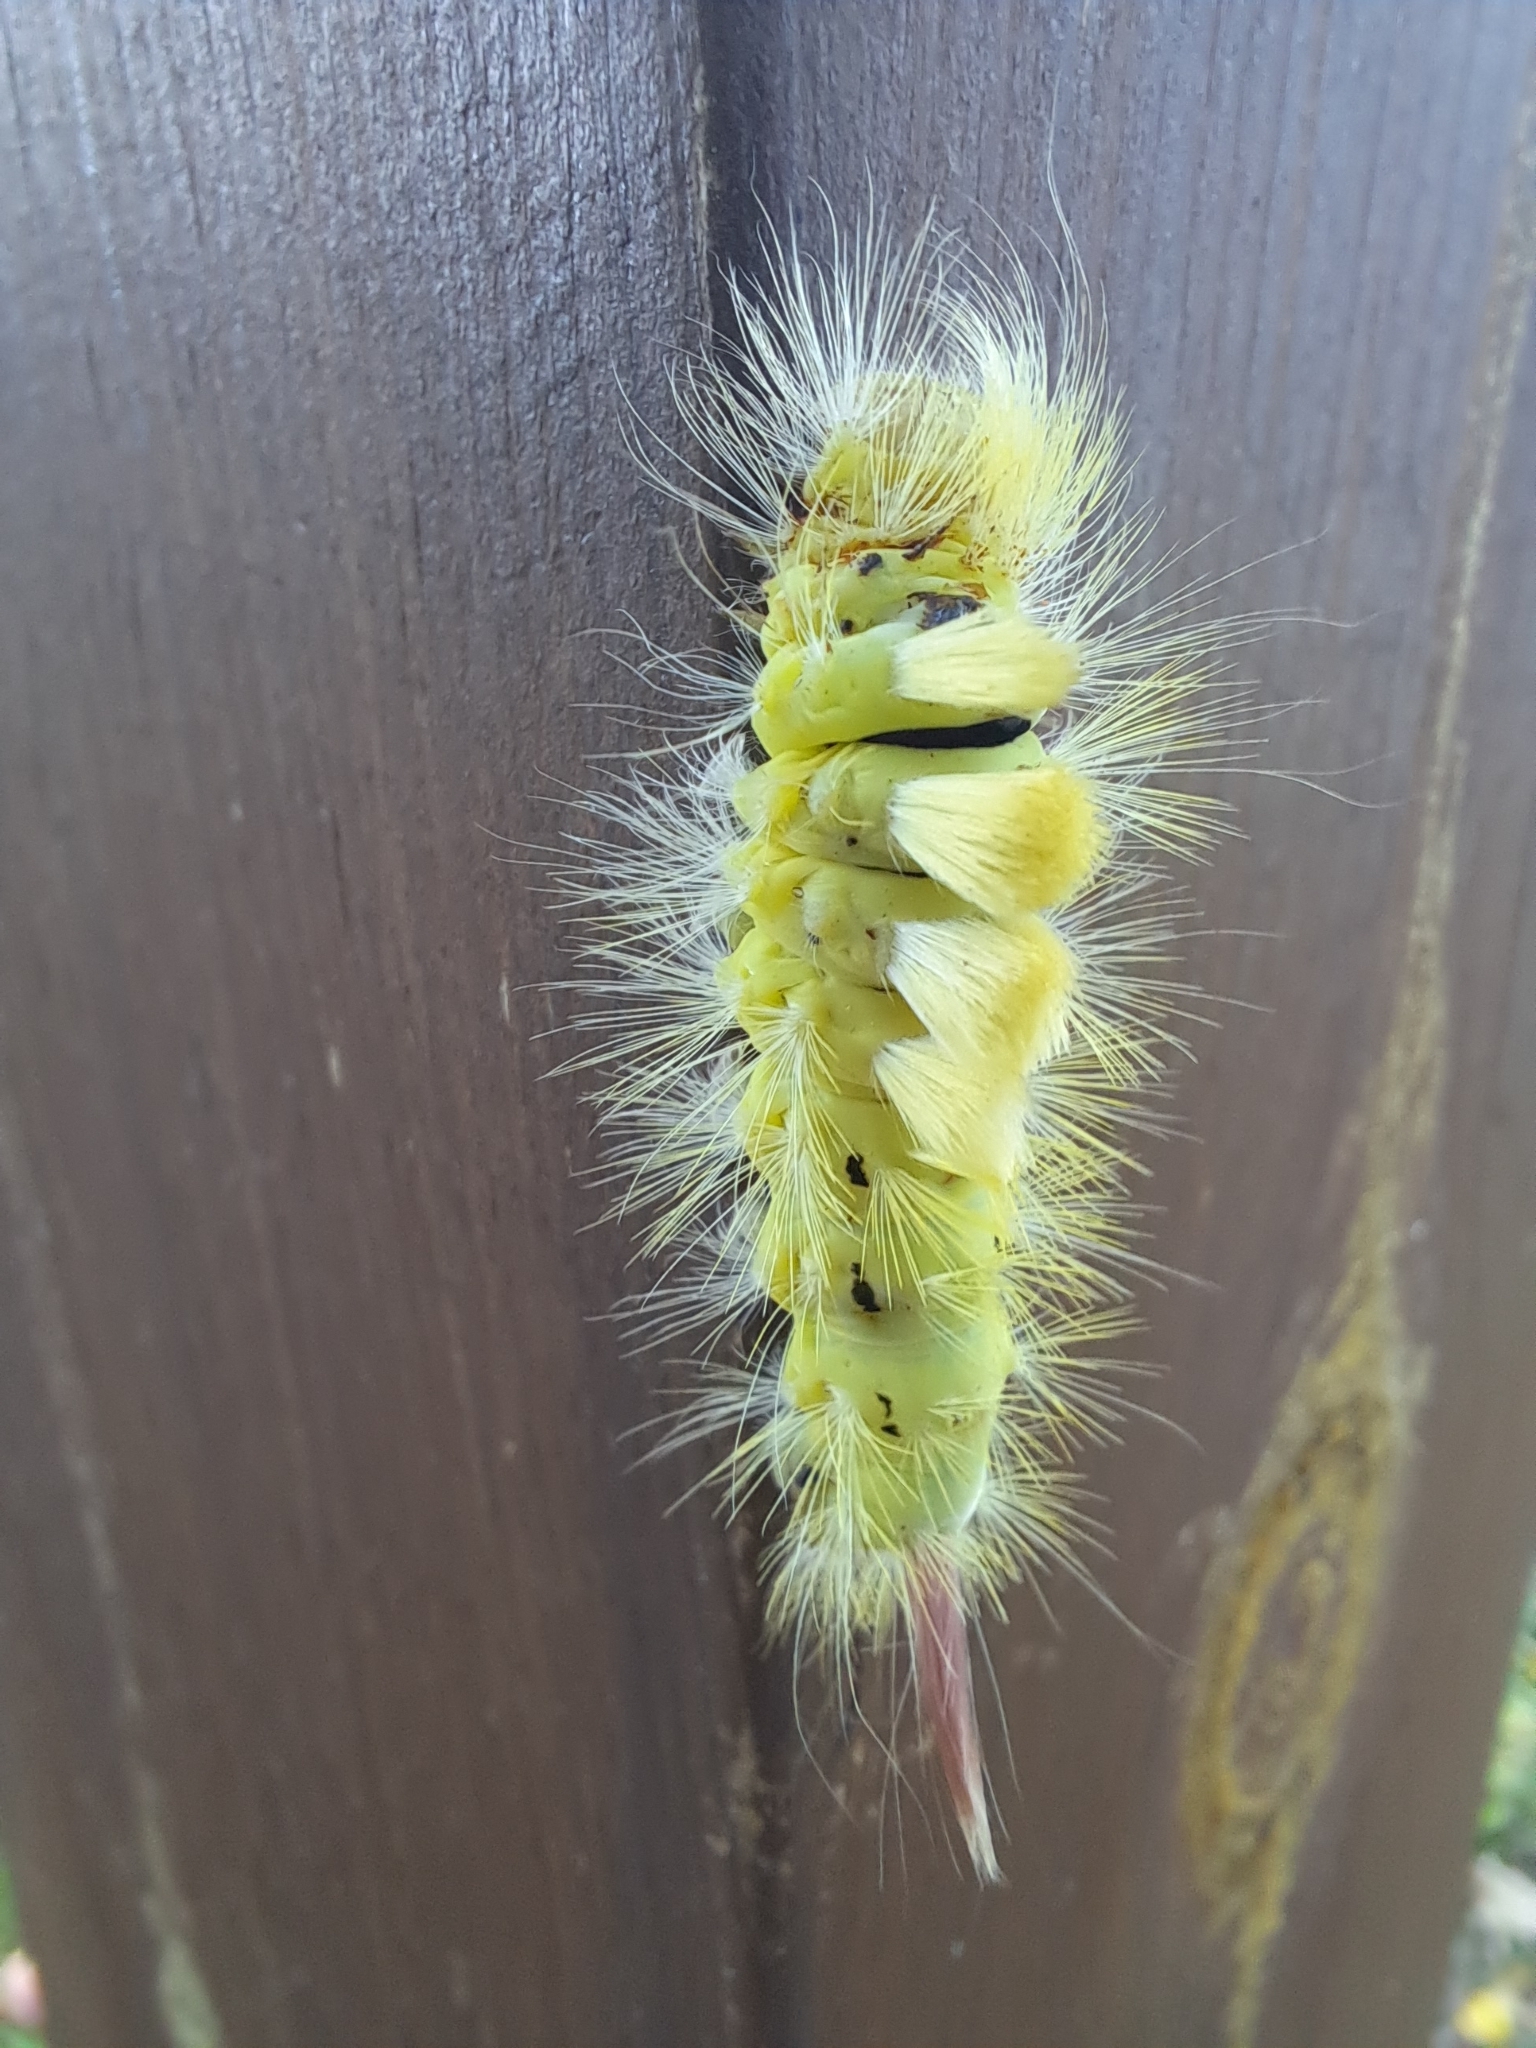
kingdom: Animalia
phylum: Arthropoda
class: Insecta
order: Lepidoptera
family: Erebidae
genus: Calliteara
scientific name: Calliteara pudibunda
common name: Pale tussock
